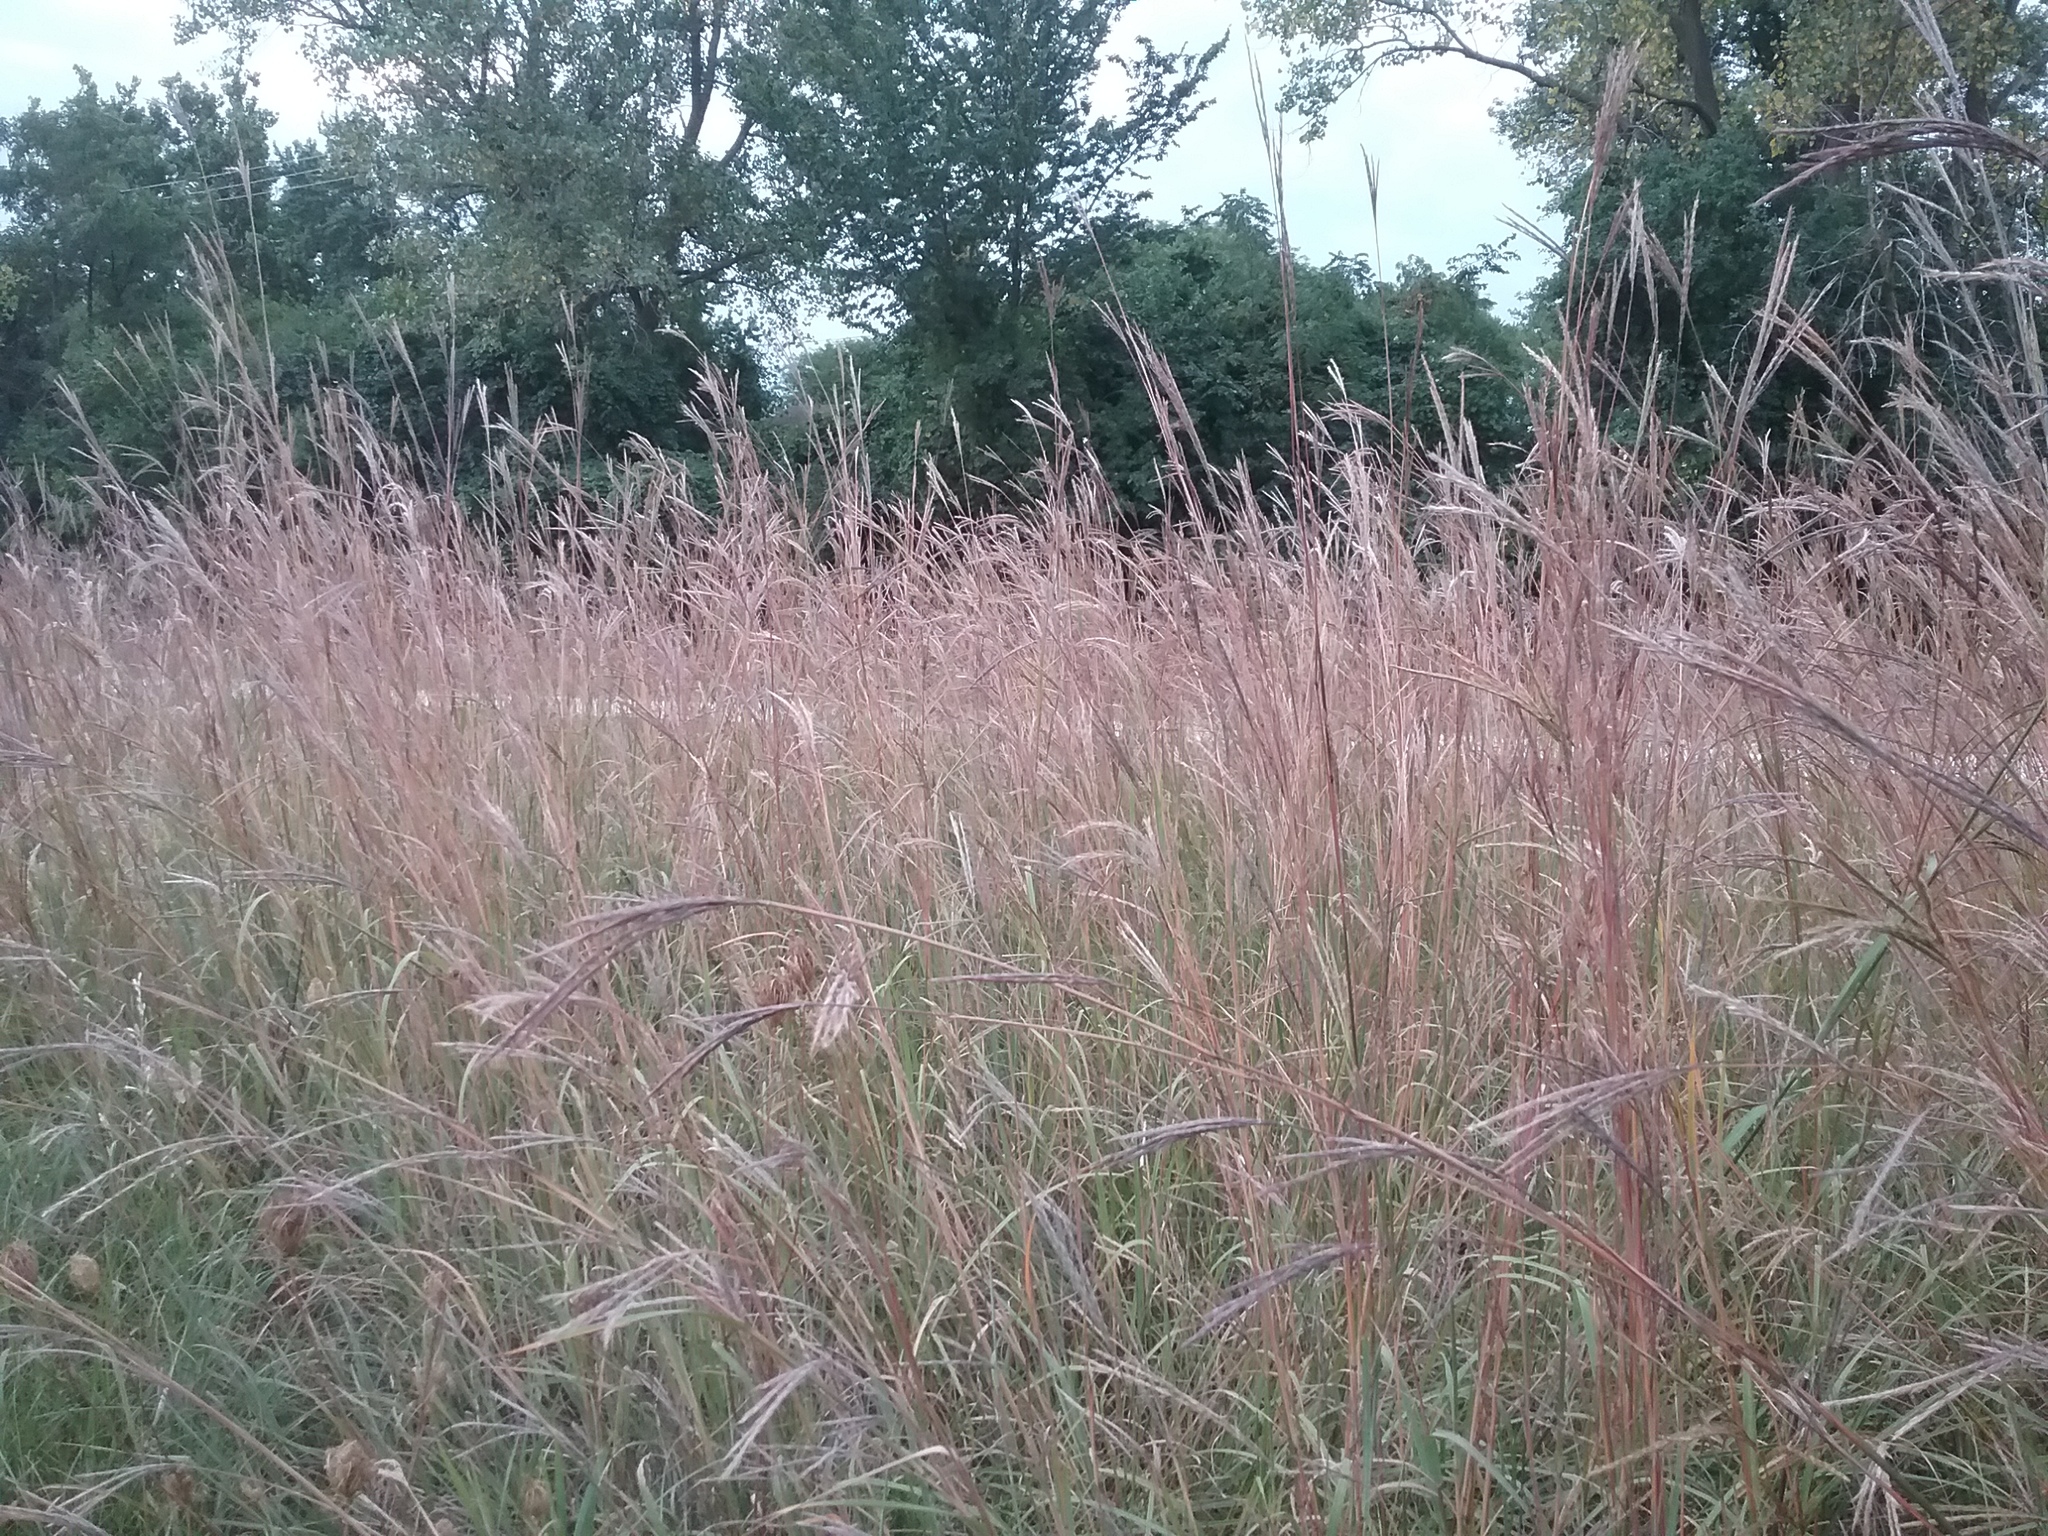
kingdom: Plantae
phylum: Tracheophyta
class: Liliopsida
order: Poales
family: Poaceae
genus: Andropogon
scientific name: Andropogon gerardi
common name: Big bluestem
